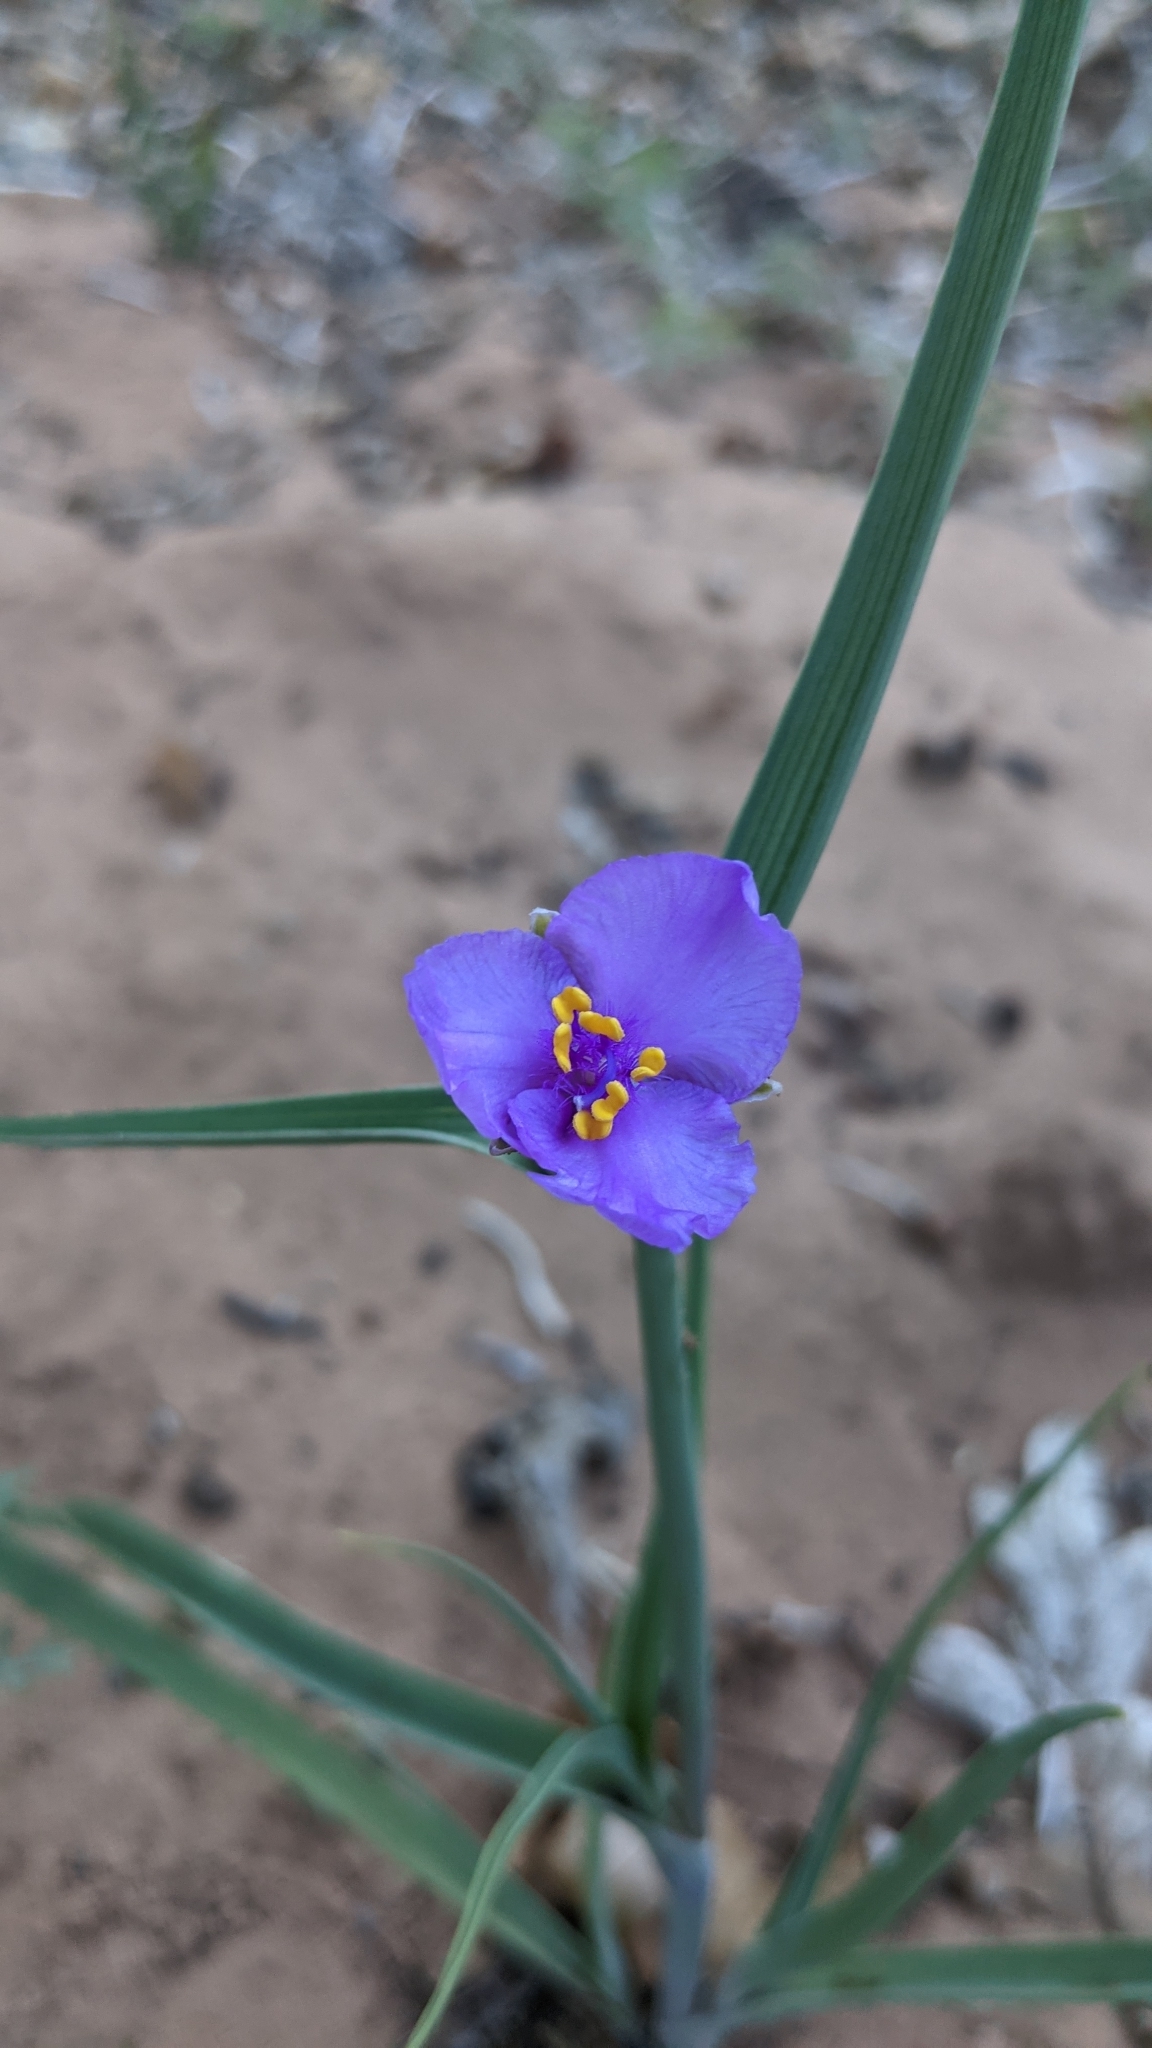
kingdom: Plantae
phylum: Tracheophyta
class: Liliopsida
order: Commelinales
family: Commelinaceae
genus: Tradescantia
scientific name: Tradescantia occidentalis
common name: Prairie spiderwort
